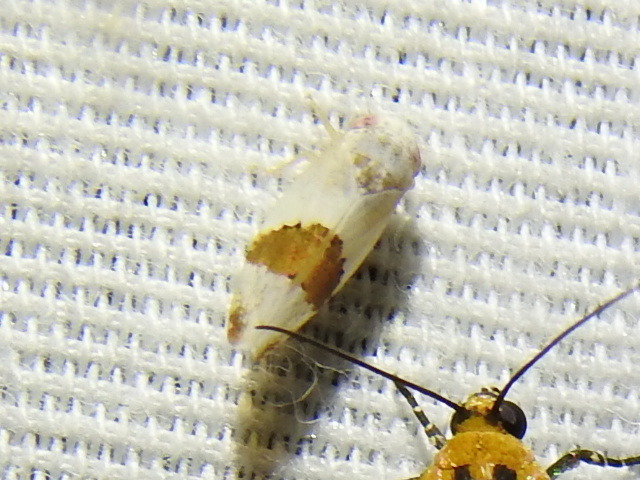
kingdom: Animalia
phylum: Arthropoda
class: Insecta
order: Hemiptera
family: Cicadellidae
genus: Norvellina
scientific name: Norvellina seminuda
